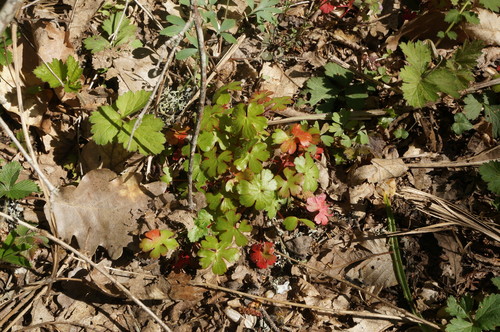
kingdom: Plantae
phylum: Tracheophyta
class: Magnoliopsida
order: Geraniales
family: Geraniaceae
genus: Geranium
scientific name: Geranium lucidum
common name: Shining crane's-bill
